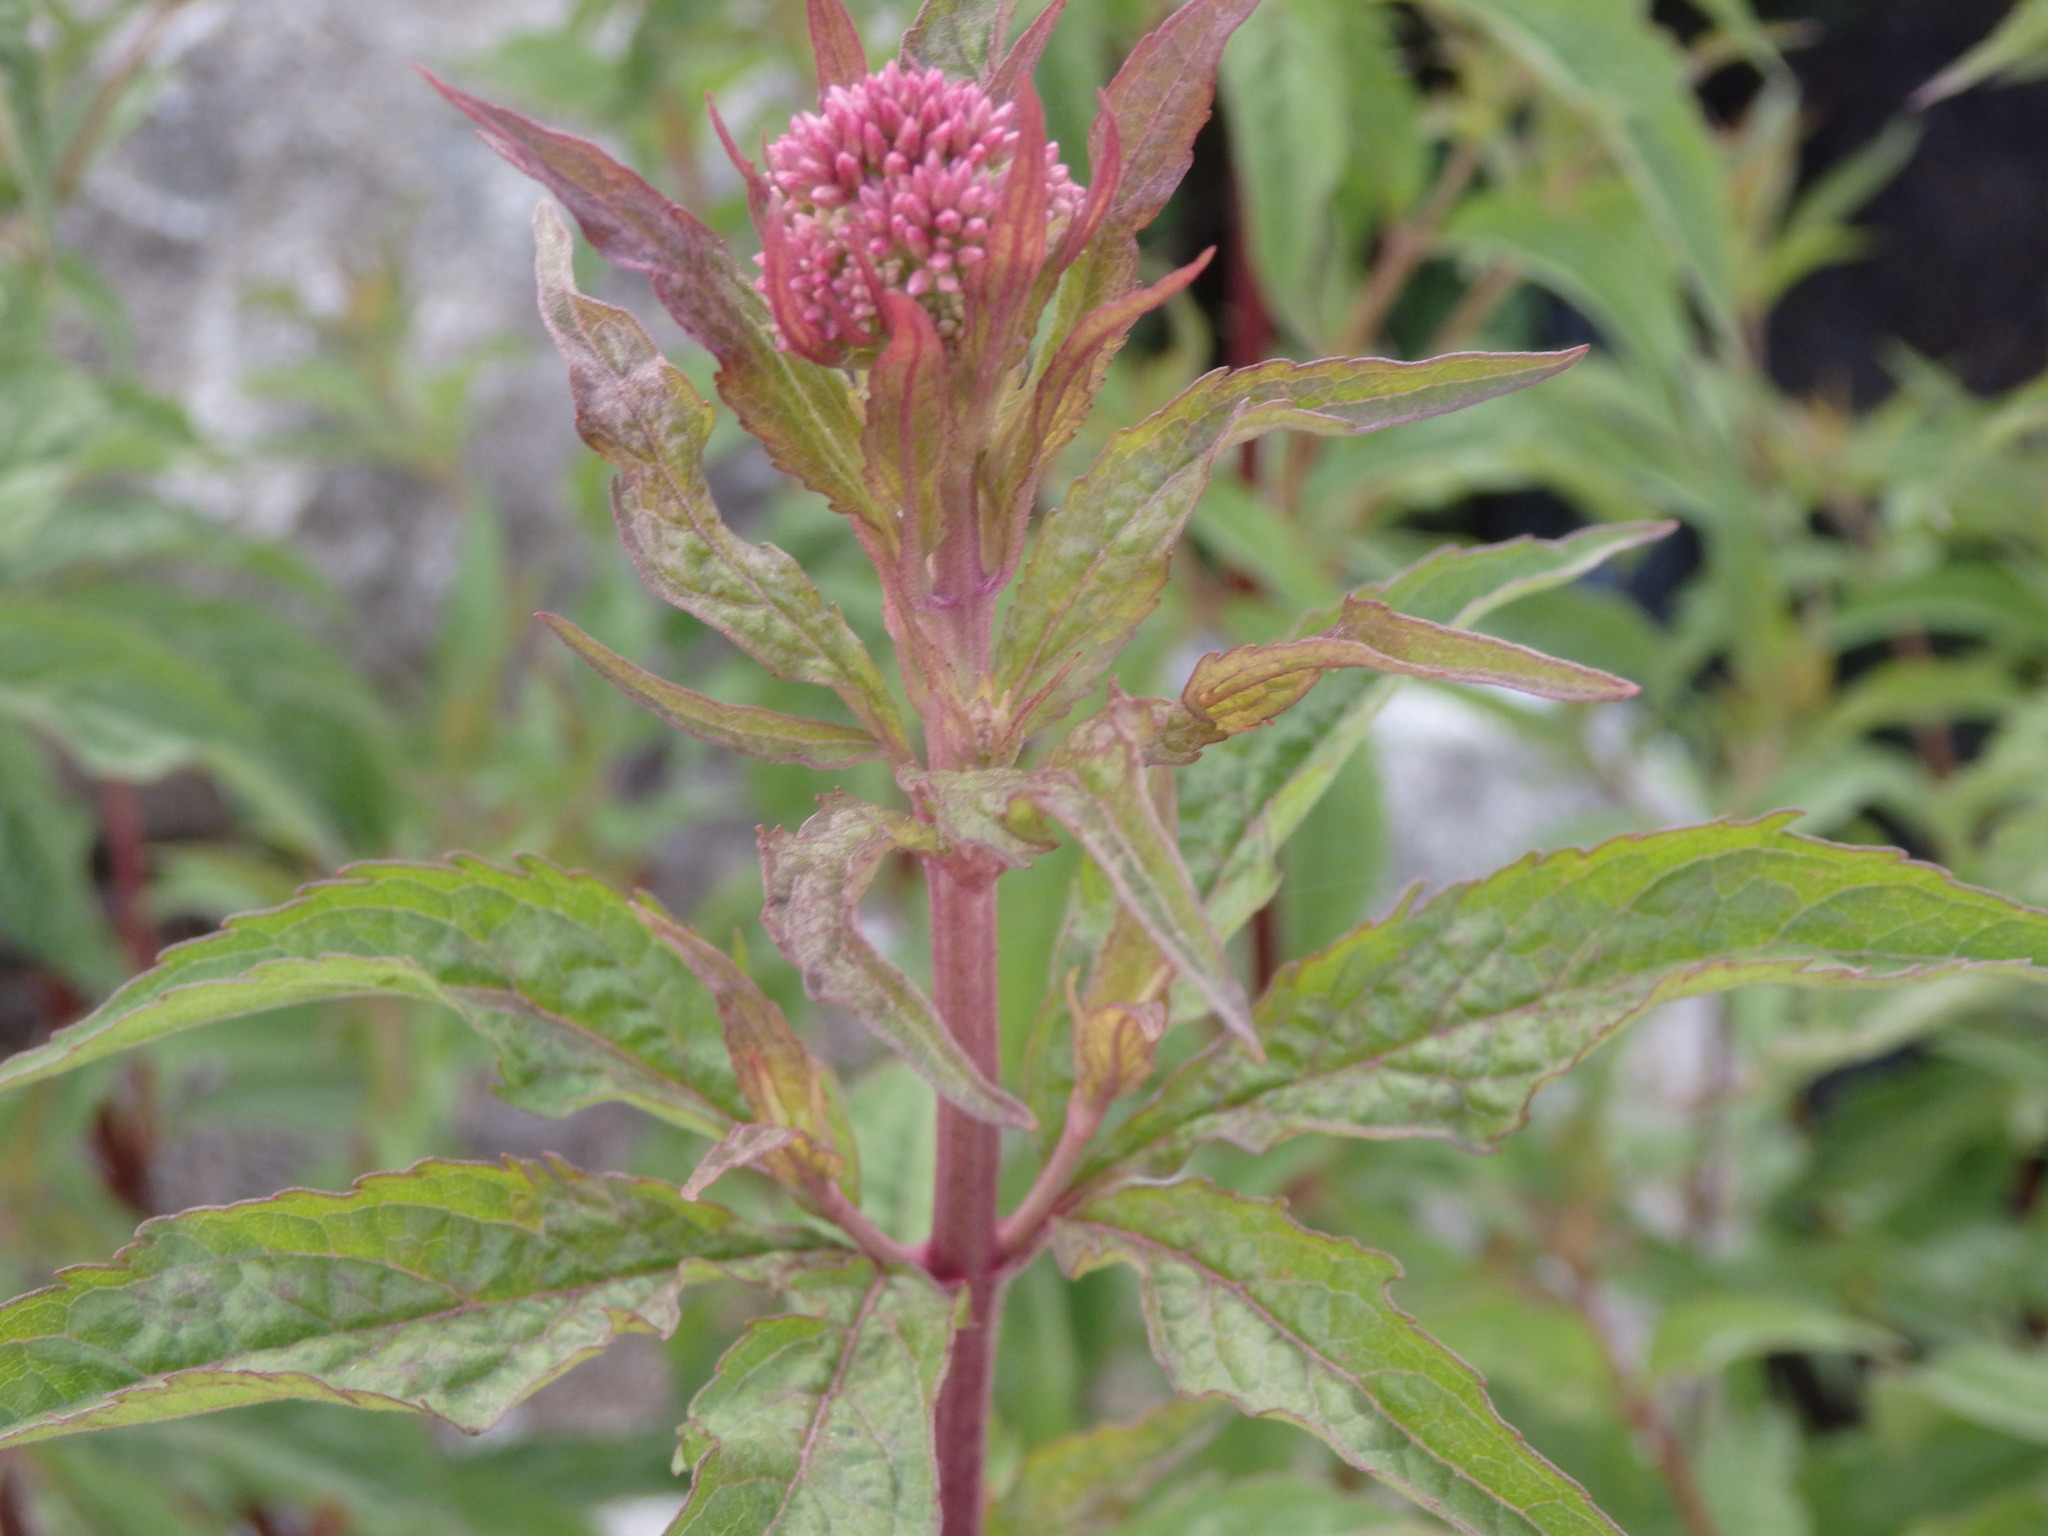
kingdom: Plantae
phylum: Tracheophyta
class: Magnoliopsida
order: Asterales
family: Asteraceae
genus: Eupatorium
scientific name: Eupatorium cannabinum
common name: Hemp-agrimony
